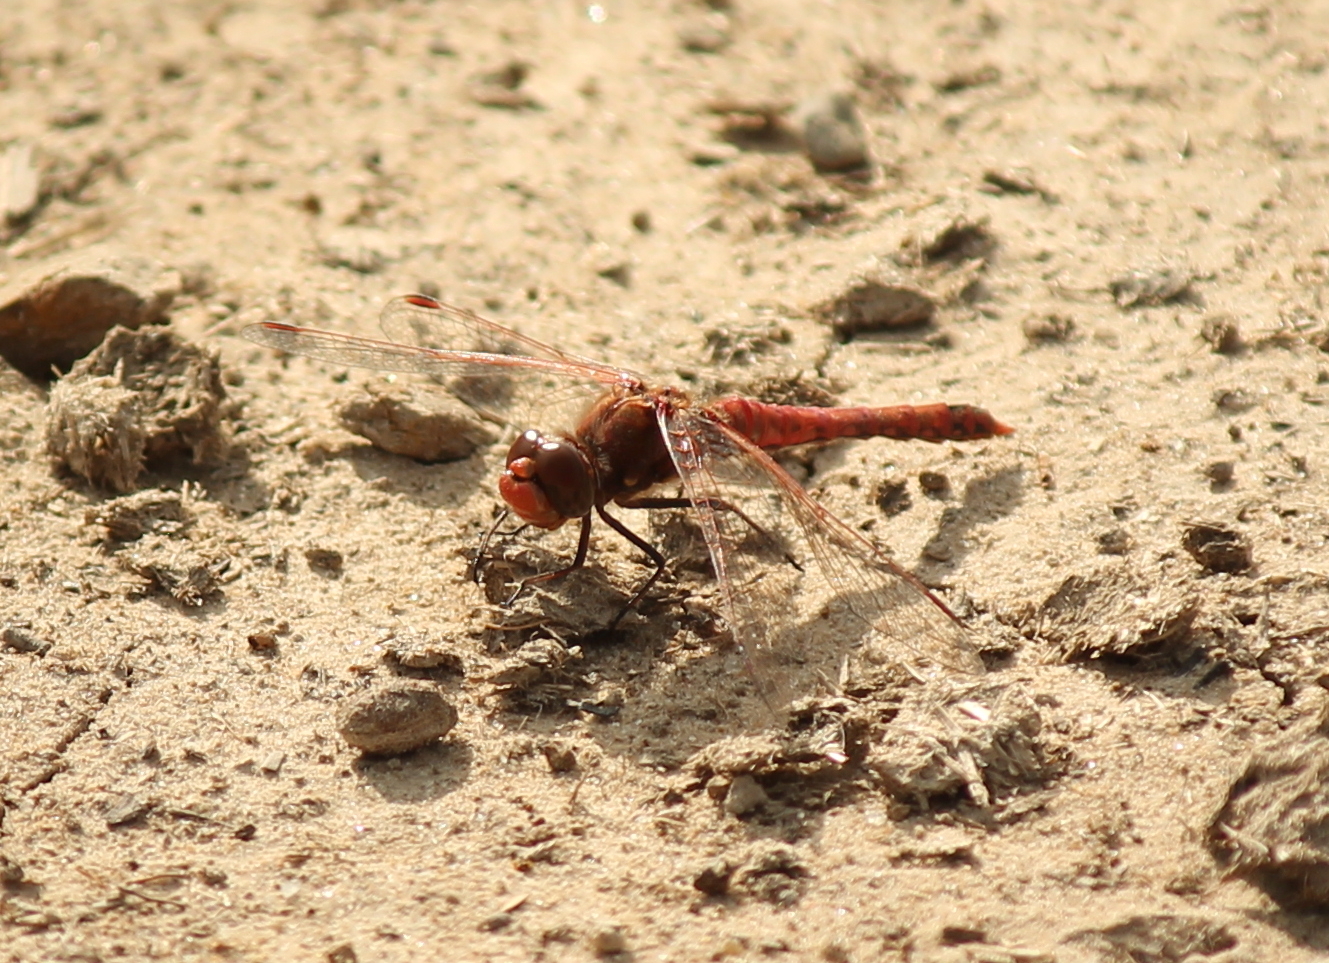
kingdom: Animalia
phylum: Arthropoda
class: Insecta
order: Odonata
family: Libellulidae
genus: Sympetrum
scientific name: Sympetrum corruptum
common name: Variegated meadowhawk
